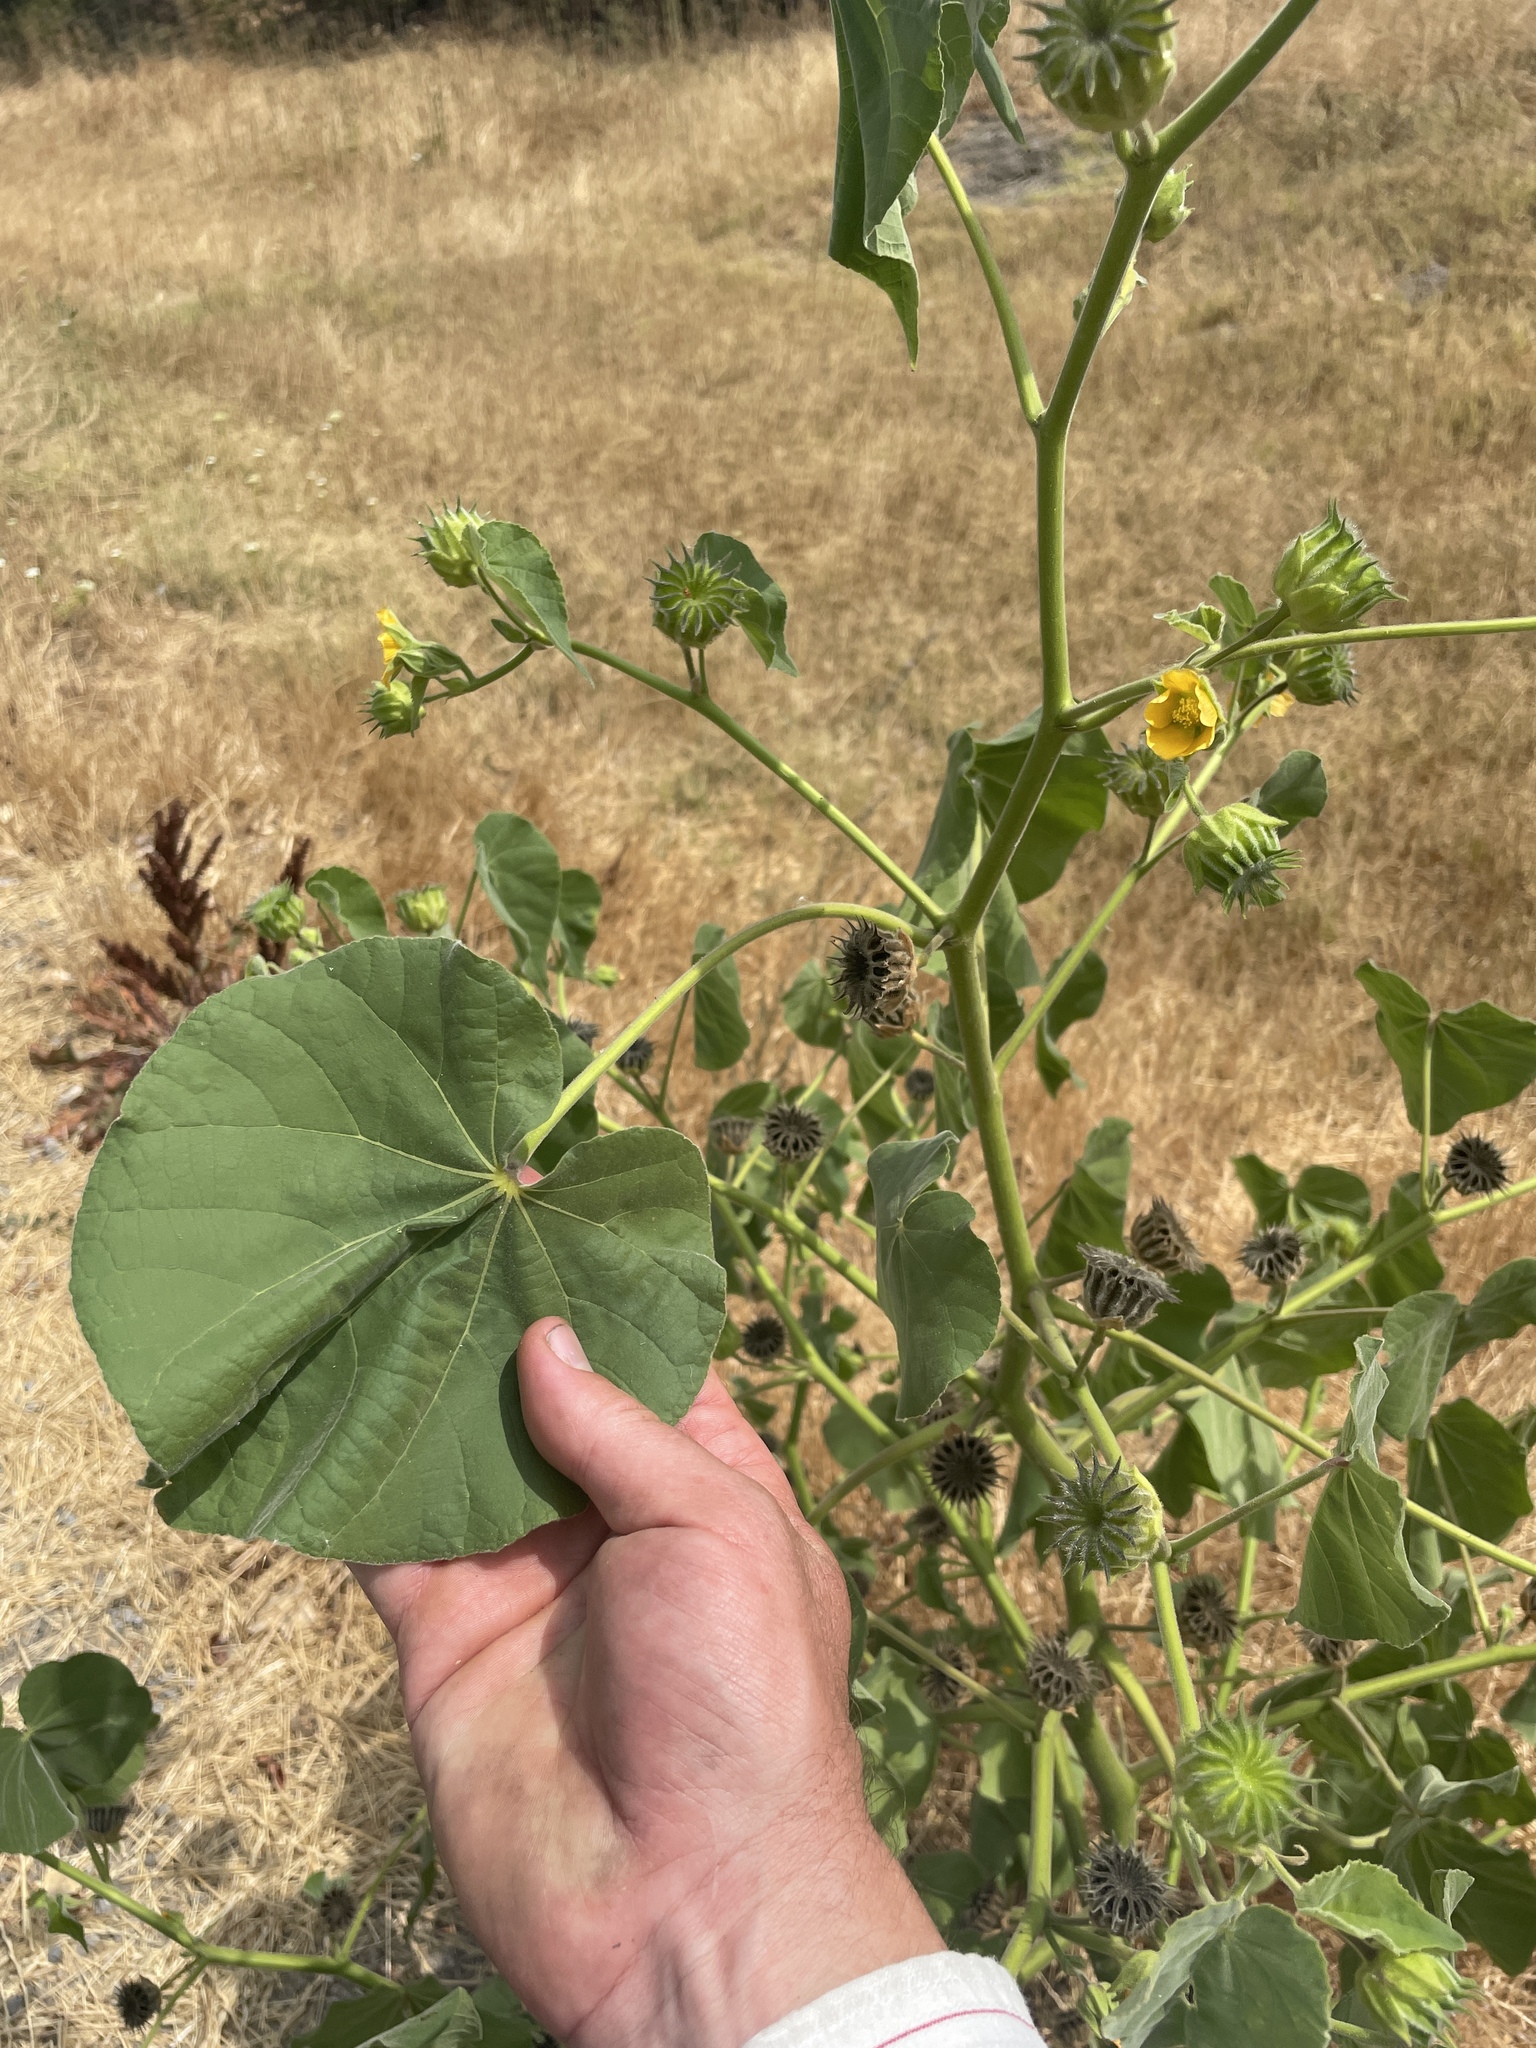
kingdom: Plantae
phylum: Tracheophyta
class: Magnoliopsida
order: Malvales
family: Malvaceae
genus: Abutilon
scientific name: Abutilon theophrasti
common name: Velvetleaf
